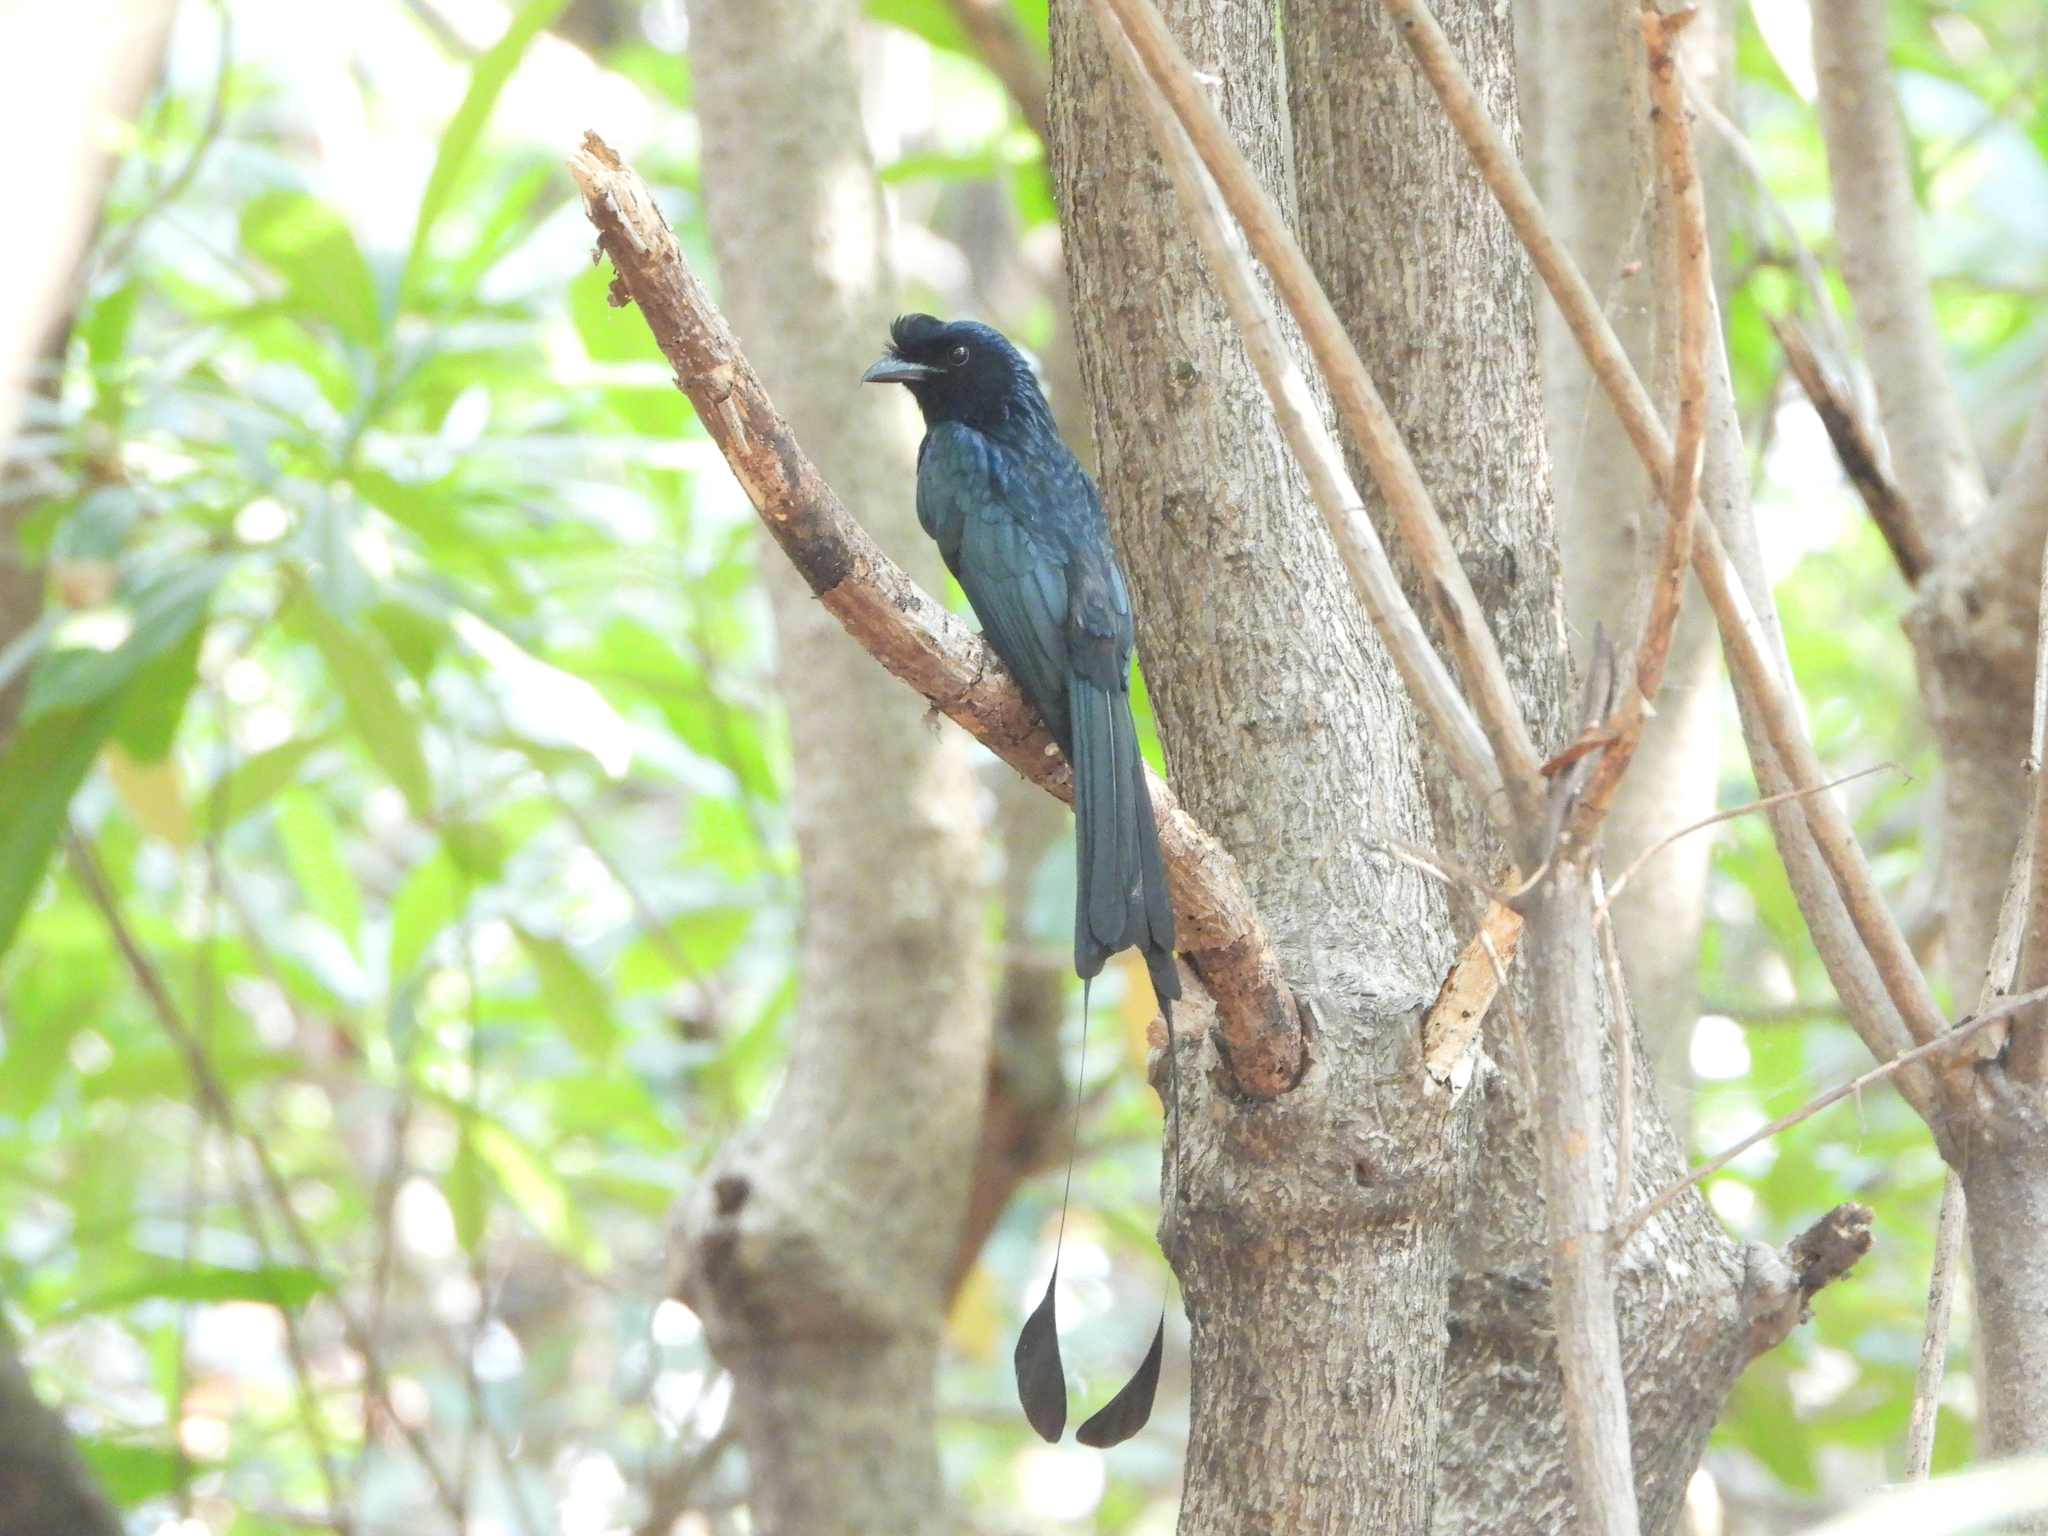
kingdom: Animalia
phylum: Chordata
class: Aves
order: Passeriformes
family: Dicruridae
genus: Dicrurus
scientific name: Dicrurus paradiseus
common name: Greater racket-tailed drongo
